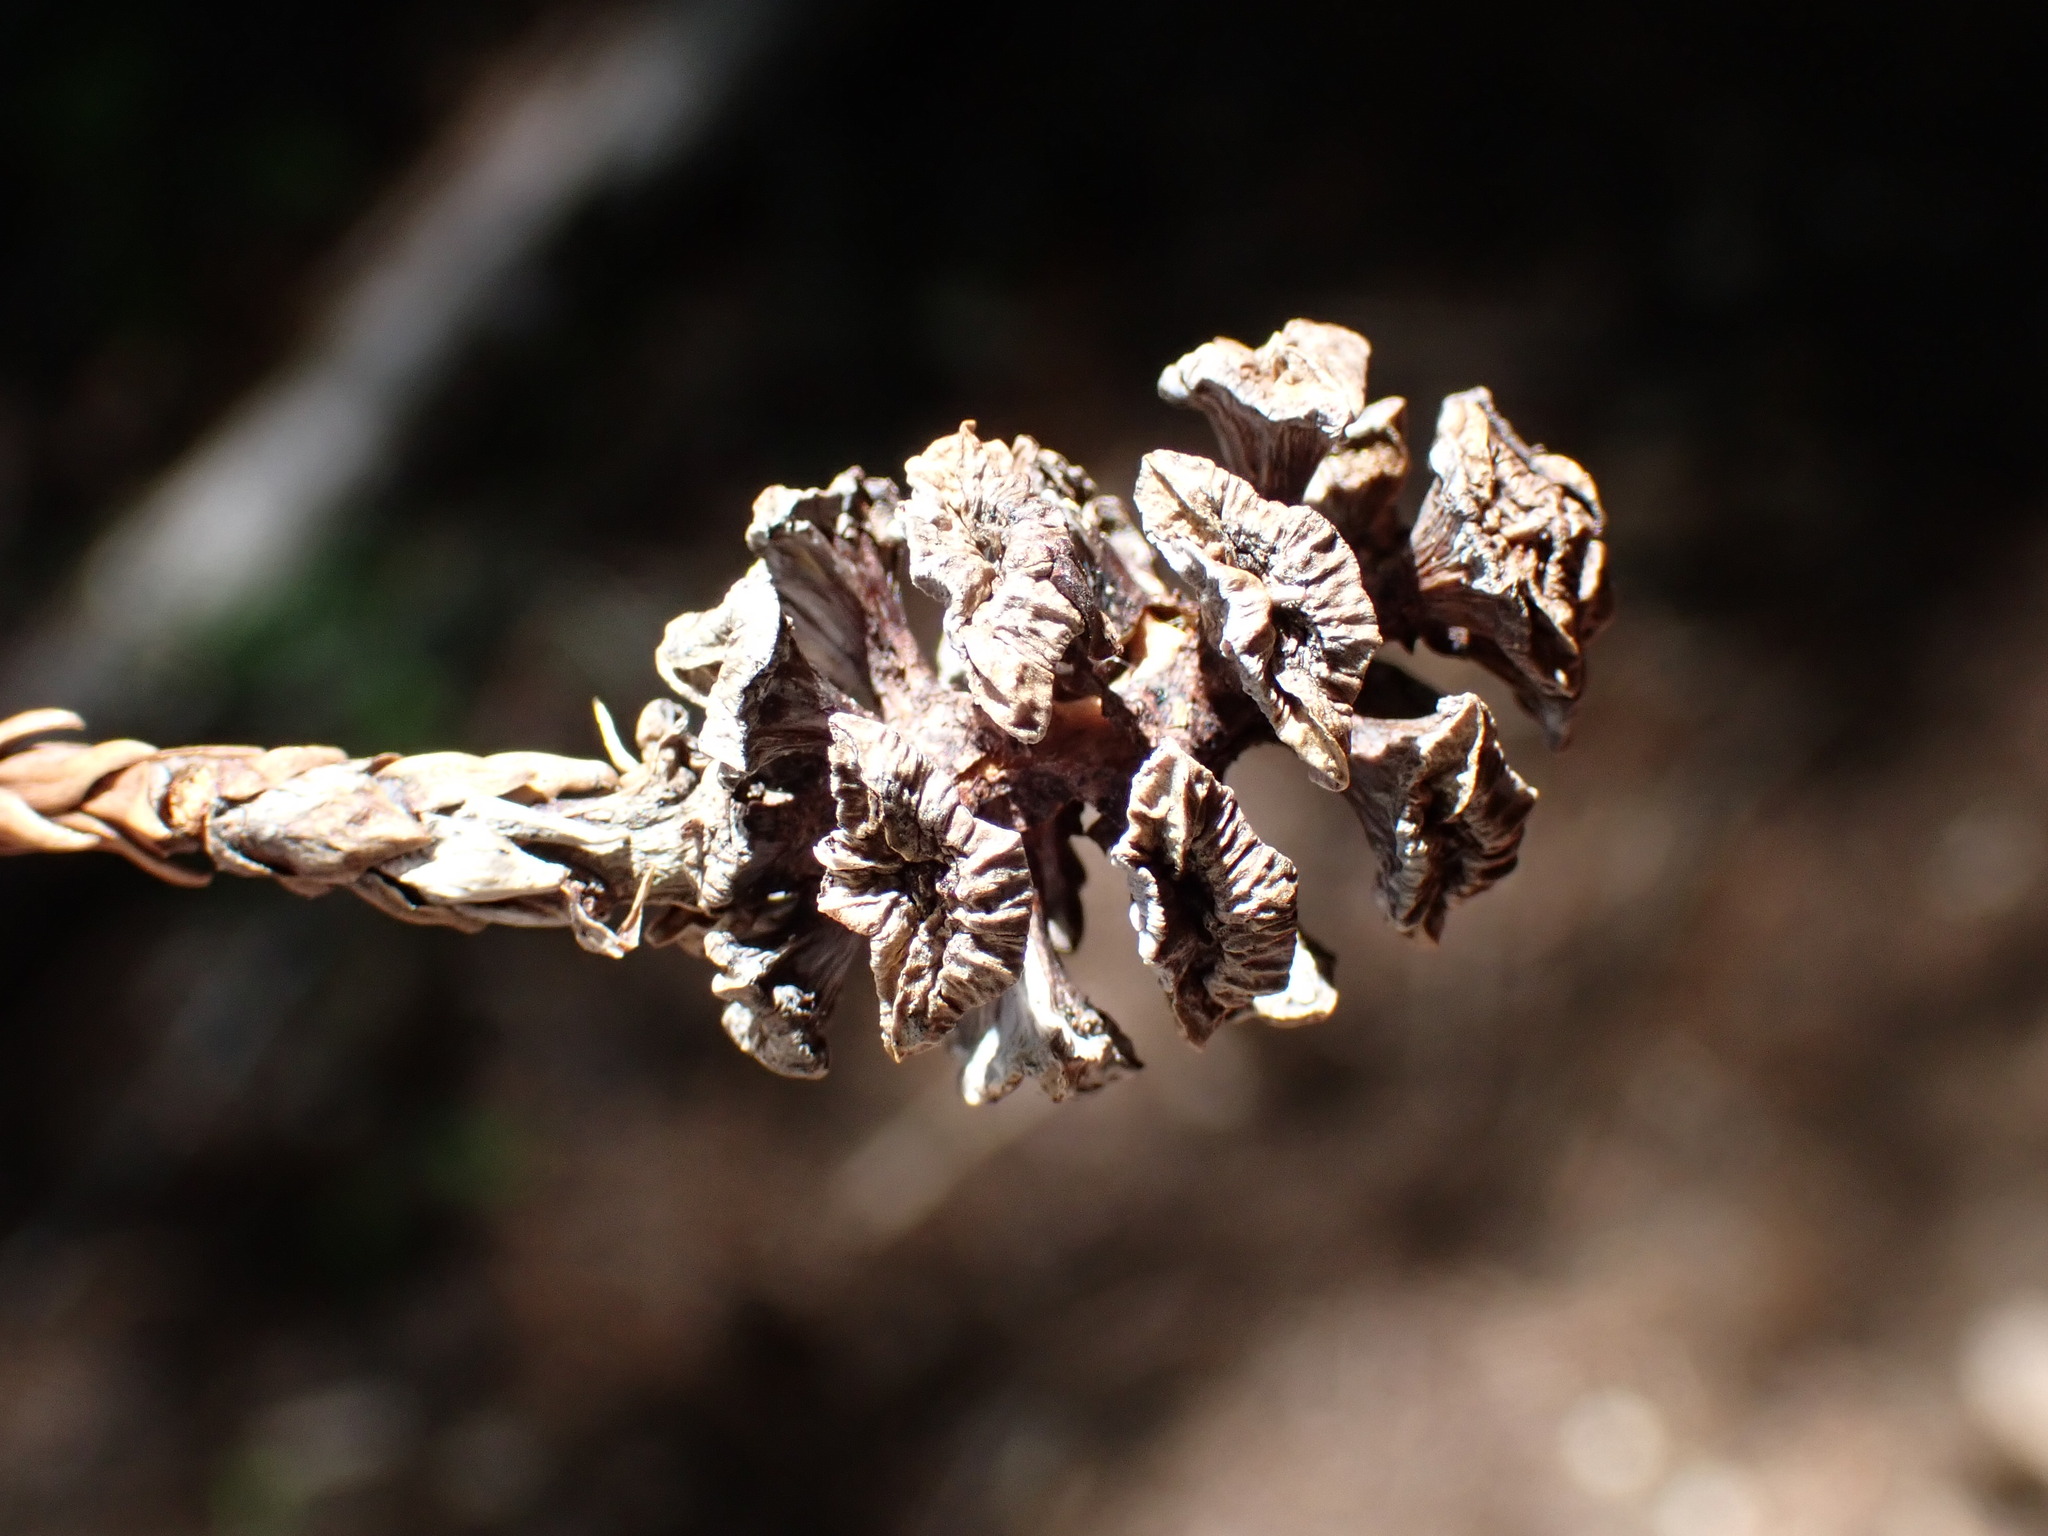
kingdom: Plantae
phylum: Tracheophyta
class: Pinopsida
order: Pinales
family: Cupressaceae
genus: Sequoia
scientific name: Sequoia sempervirens
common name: Coast redwood
